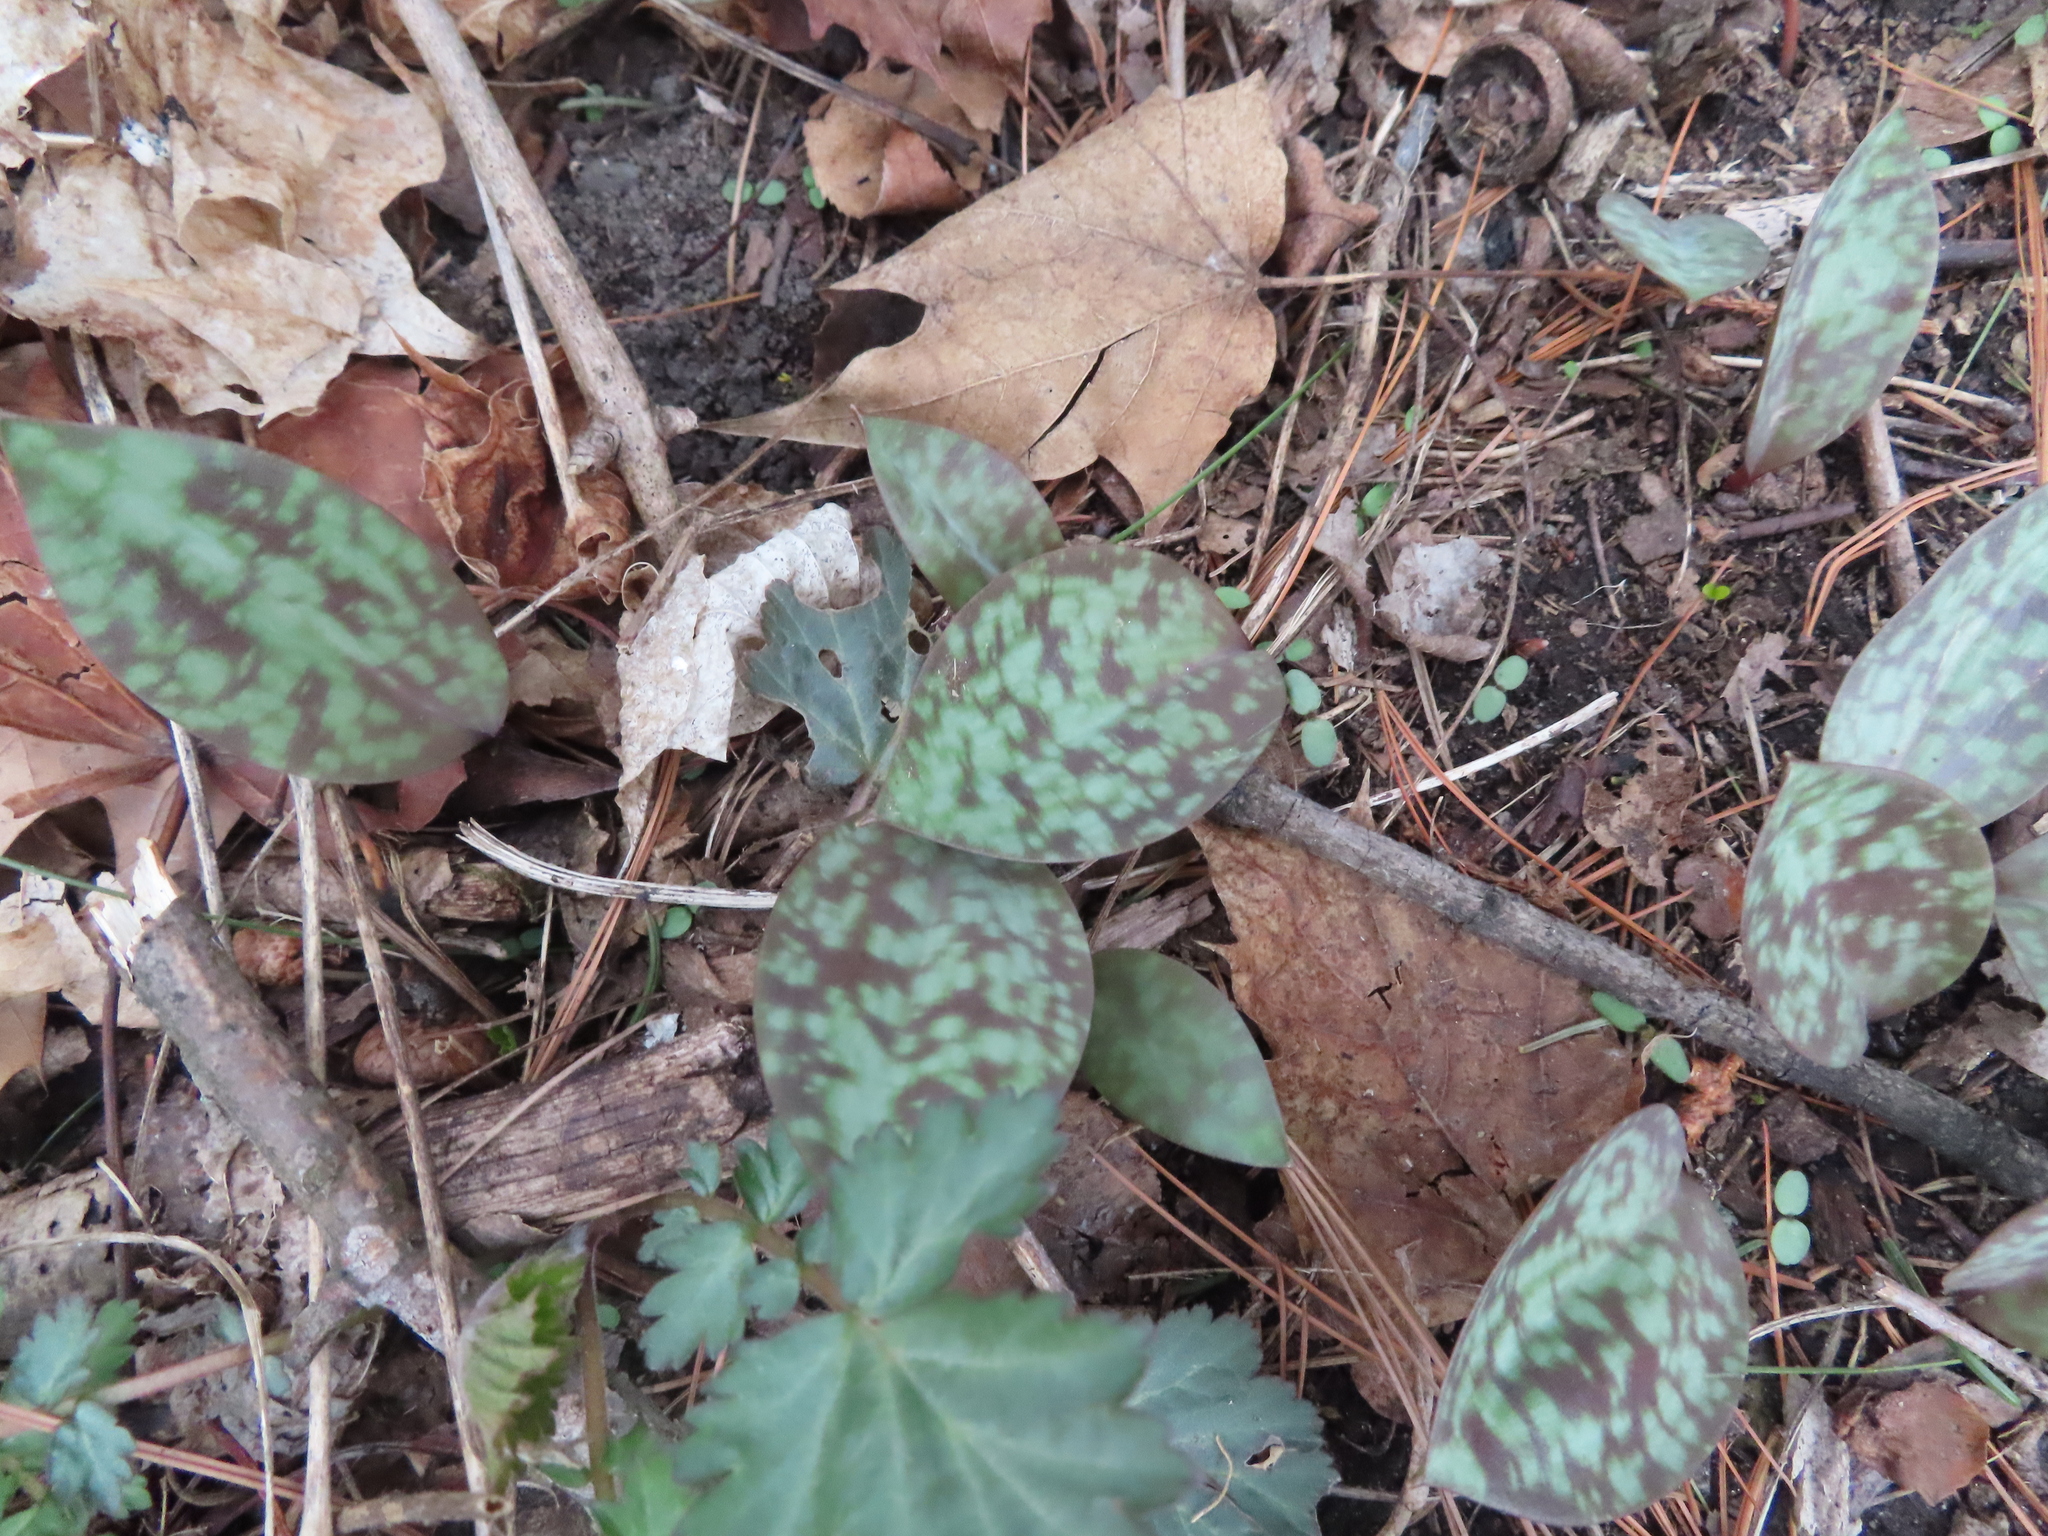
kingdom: Plantae
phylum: Tracheophyta
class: Liliopsida
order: Liliales
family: Liliaceae
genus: Erythronium
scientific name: Erythronium
